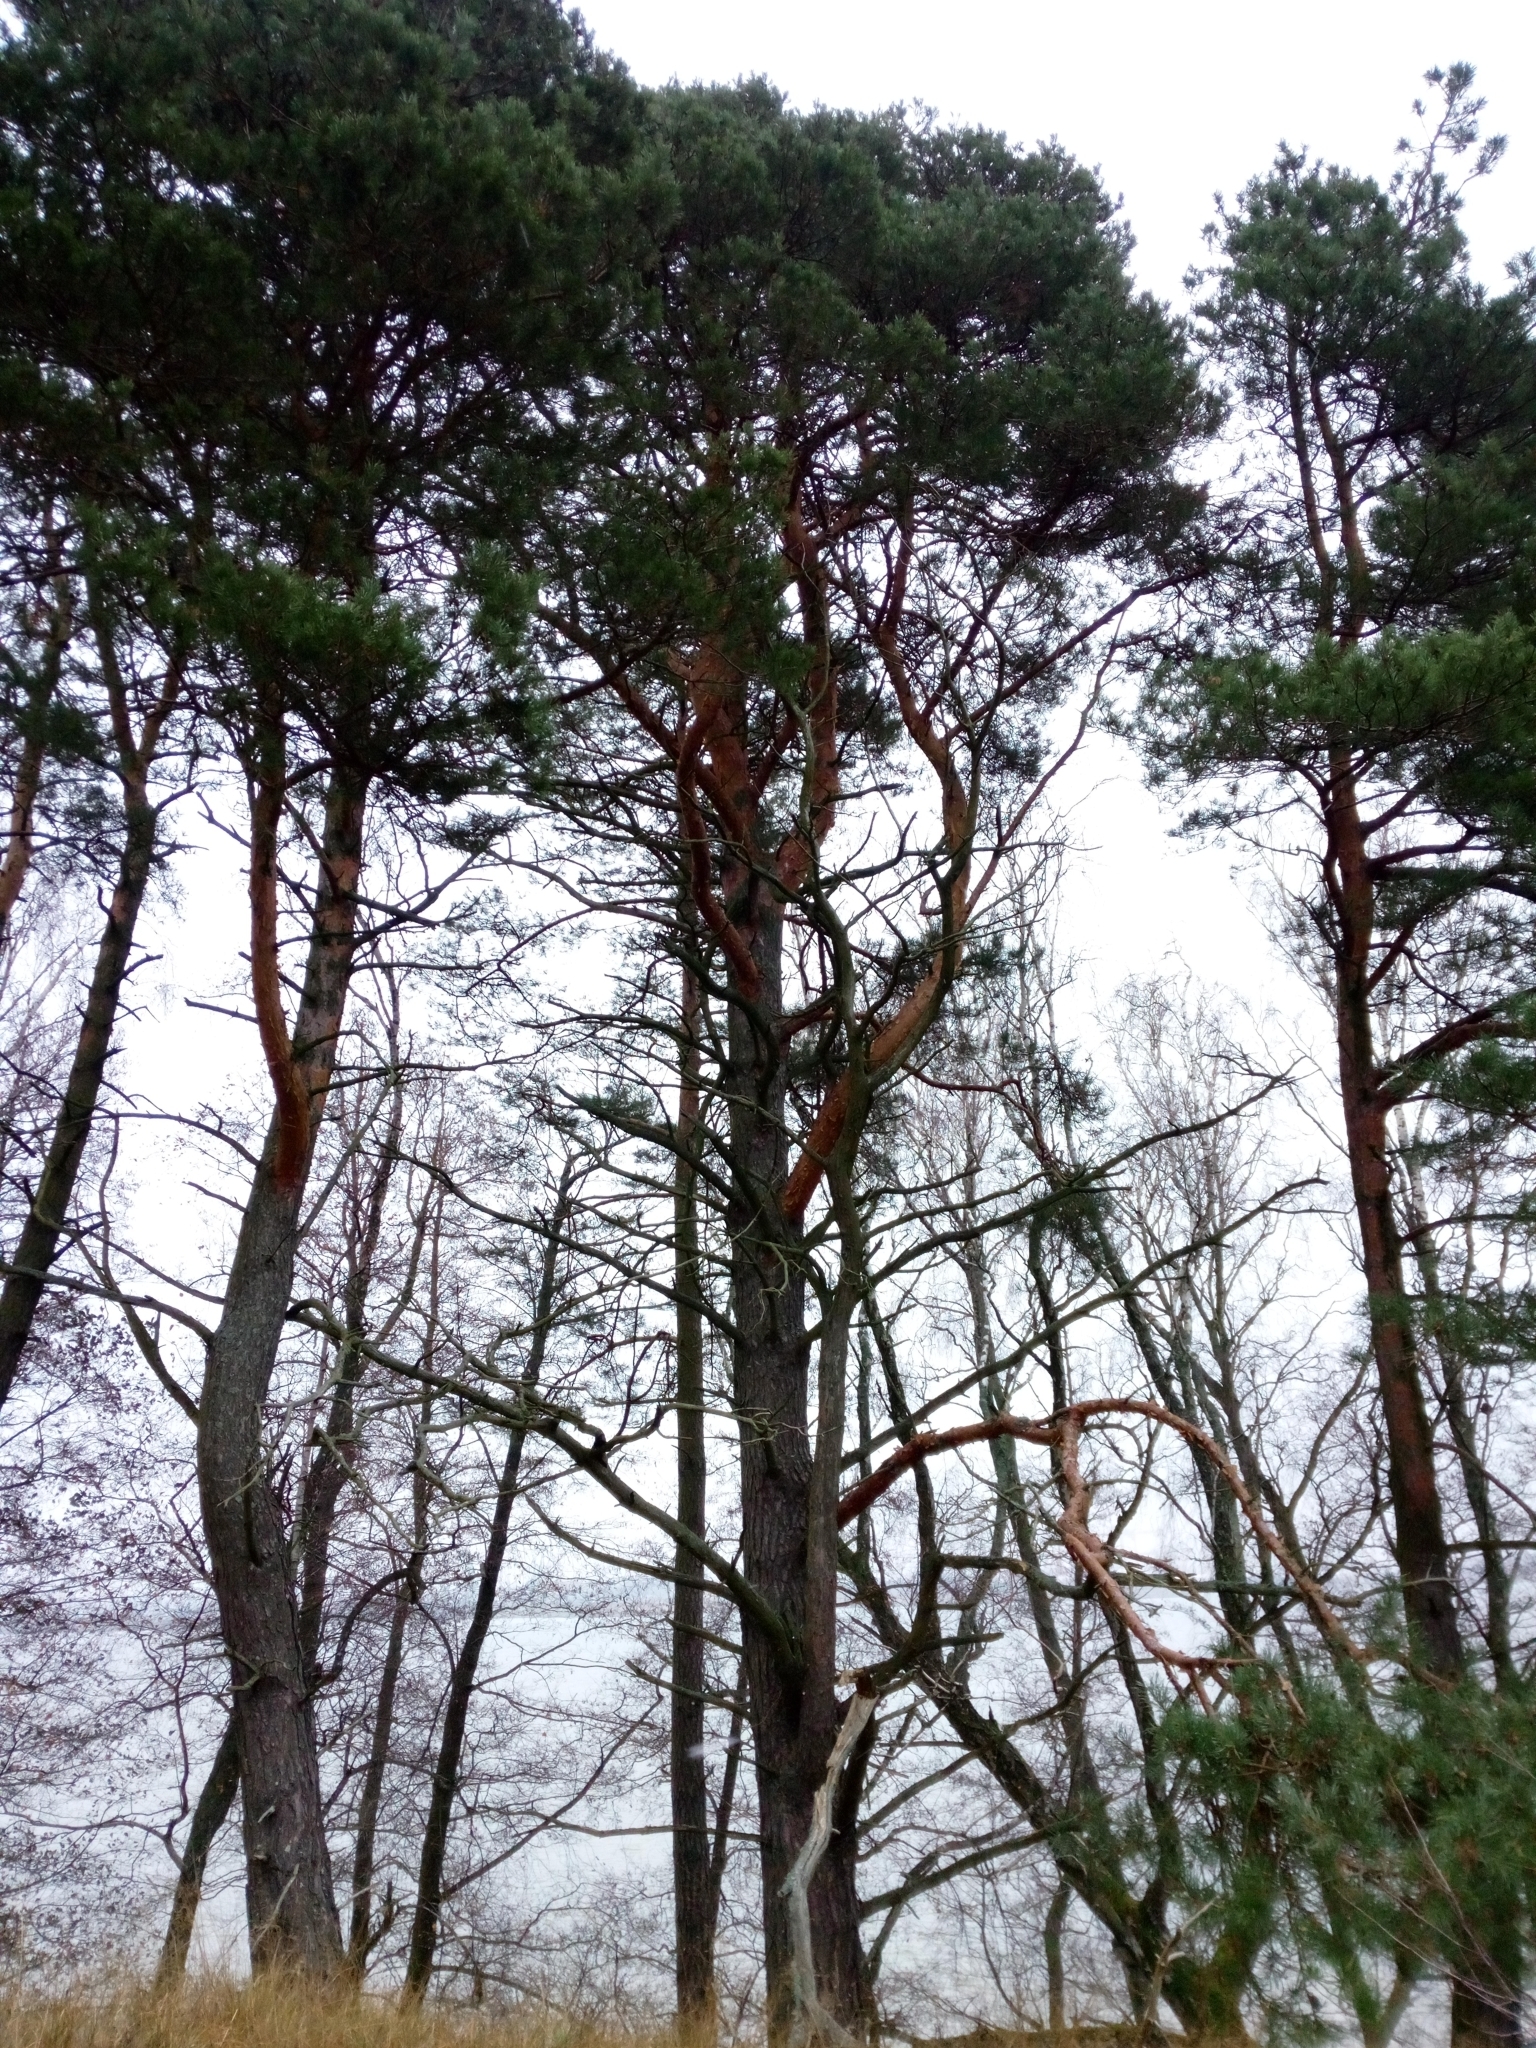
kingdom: Plantae
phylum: Tracheophyta
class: Pinopsida
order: Pinales
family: Pinaceae
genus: Pinus
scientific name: Pinus sylvestris
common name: Scots pine
